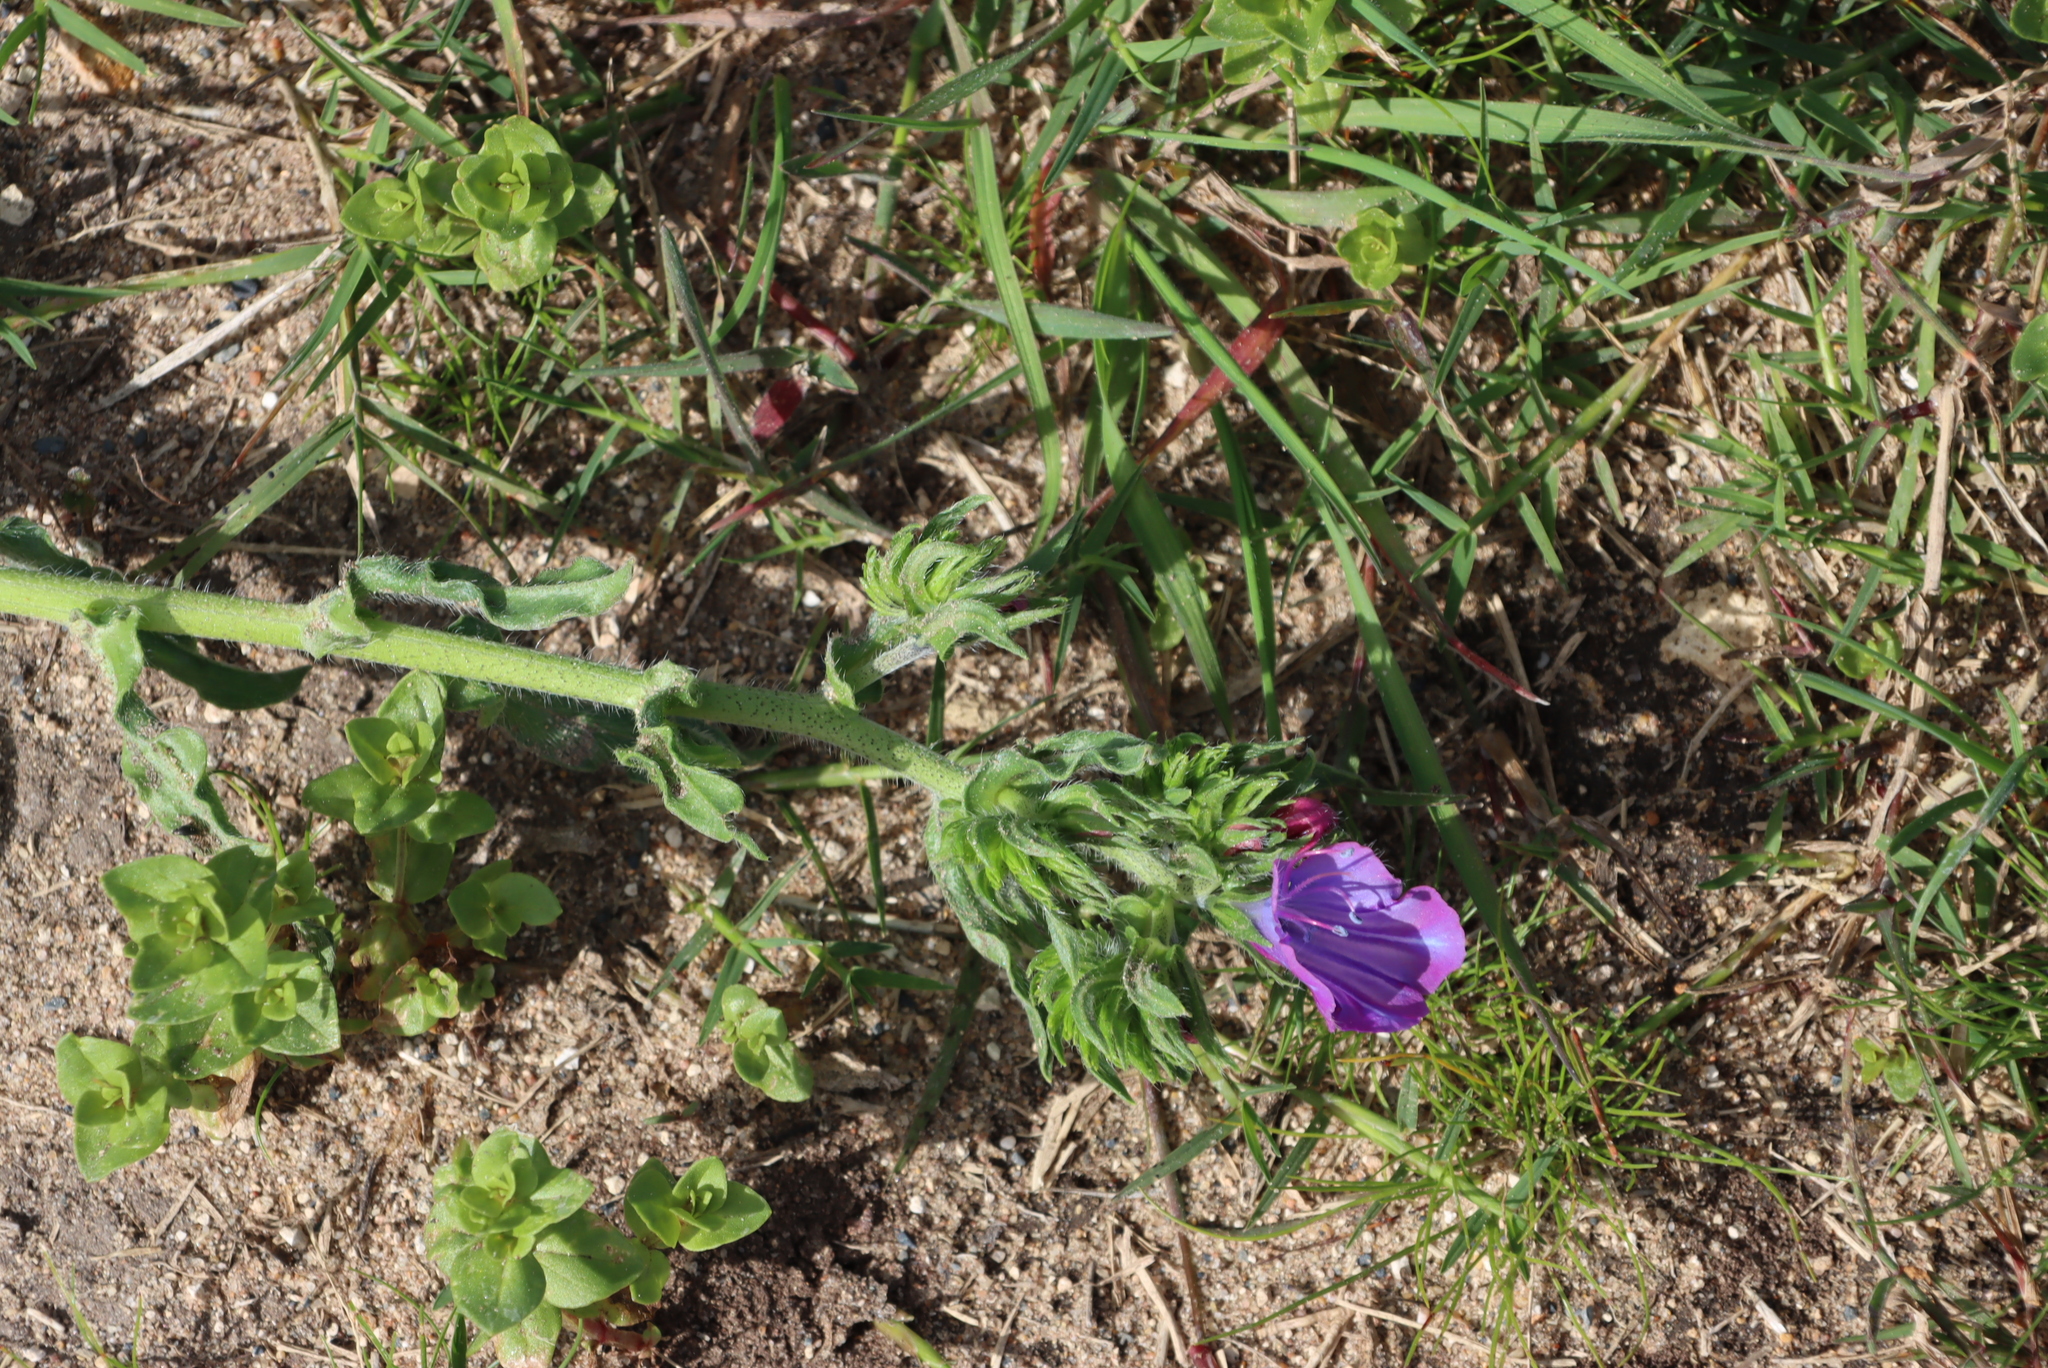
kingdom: Plantae
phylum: Tracheophyta
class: Magnoliopsida
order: Boraginales
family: Boraginaceae
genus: Echium
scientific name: Echium plantagineum
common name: Purple viper's-bugloss
